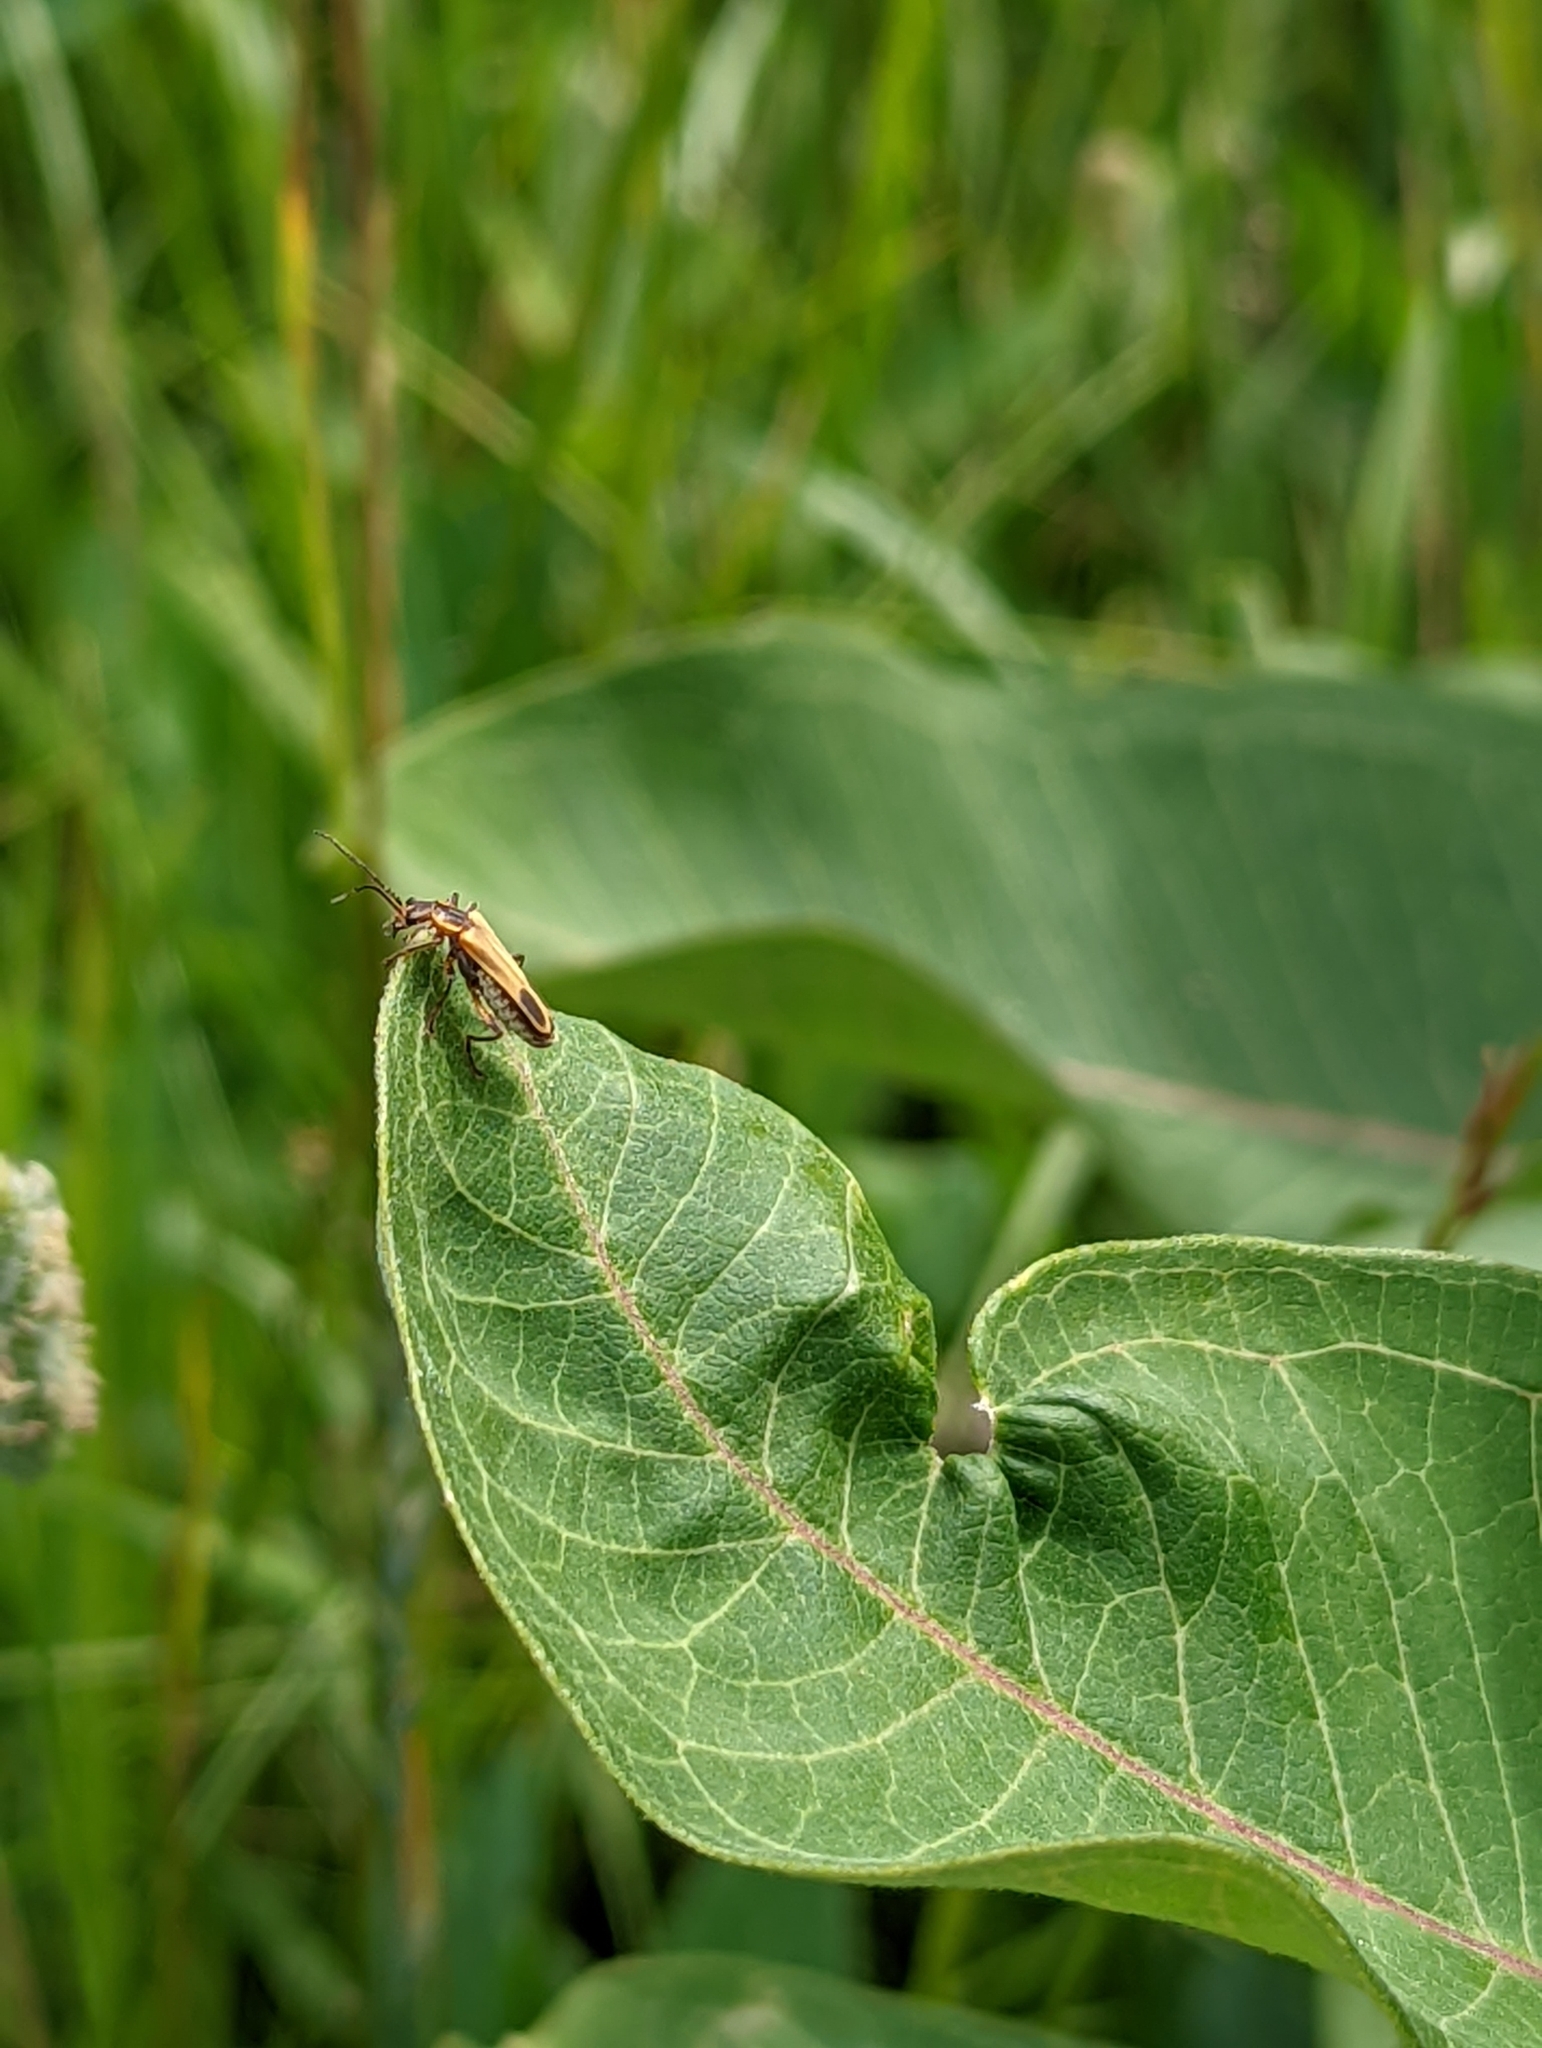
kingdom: Animalia
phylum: Arthropoda
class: Insecta
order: Coleoptera
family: Cantharidae
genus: Chauliognathus
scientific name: Chauliognathus marginatus
